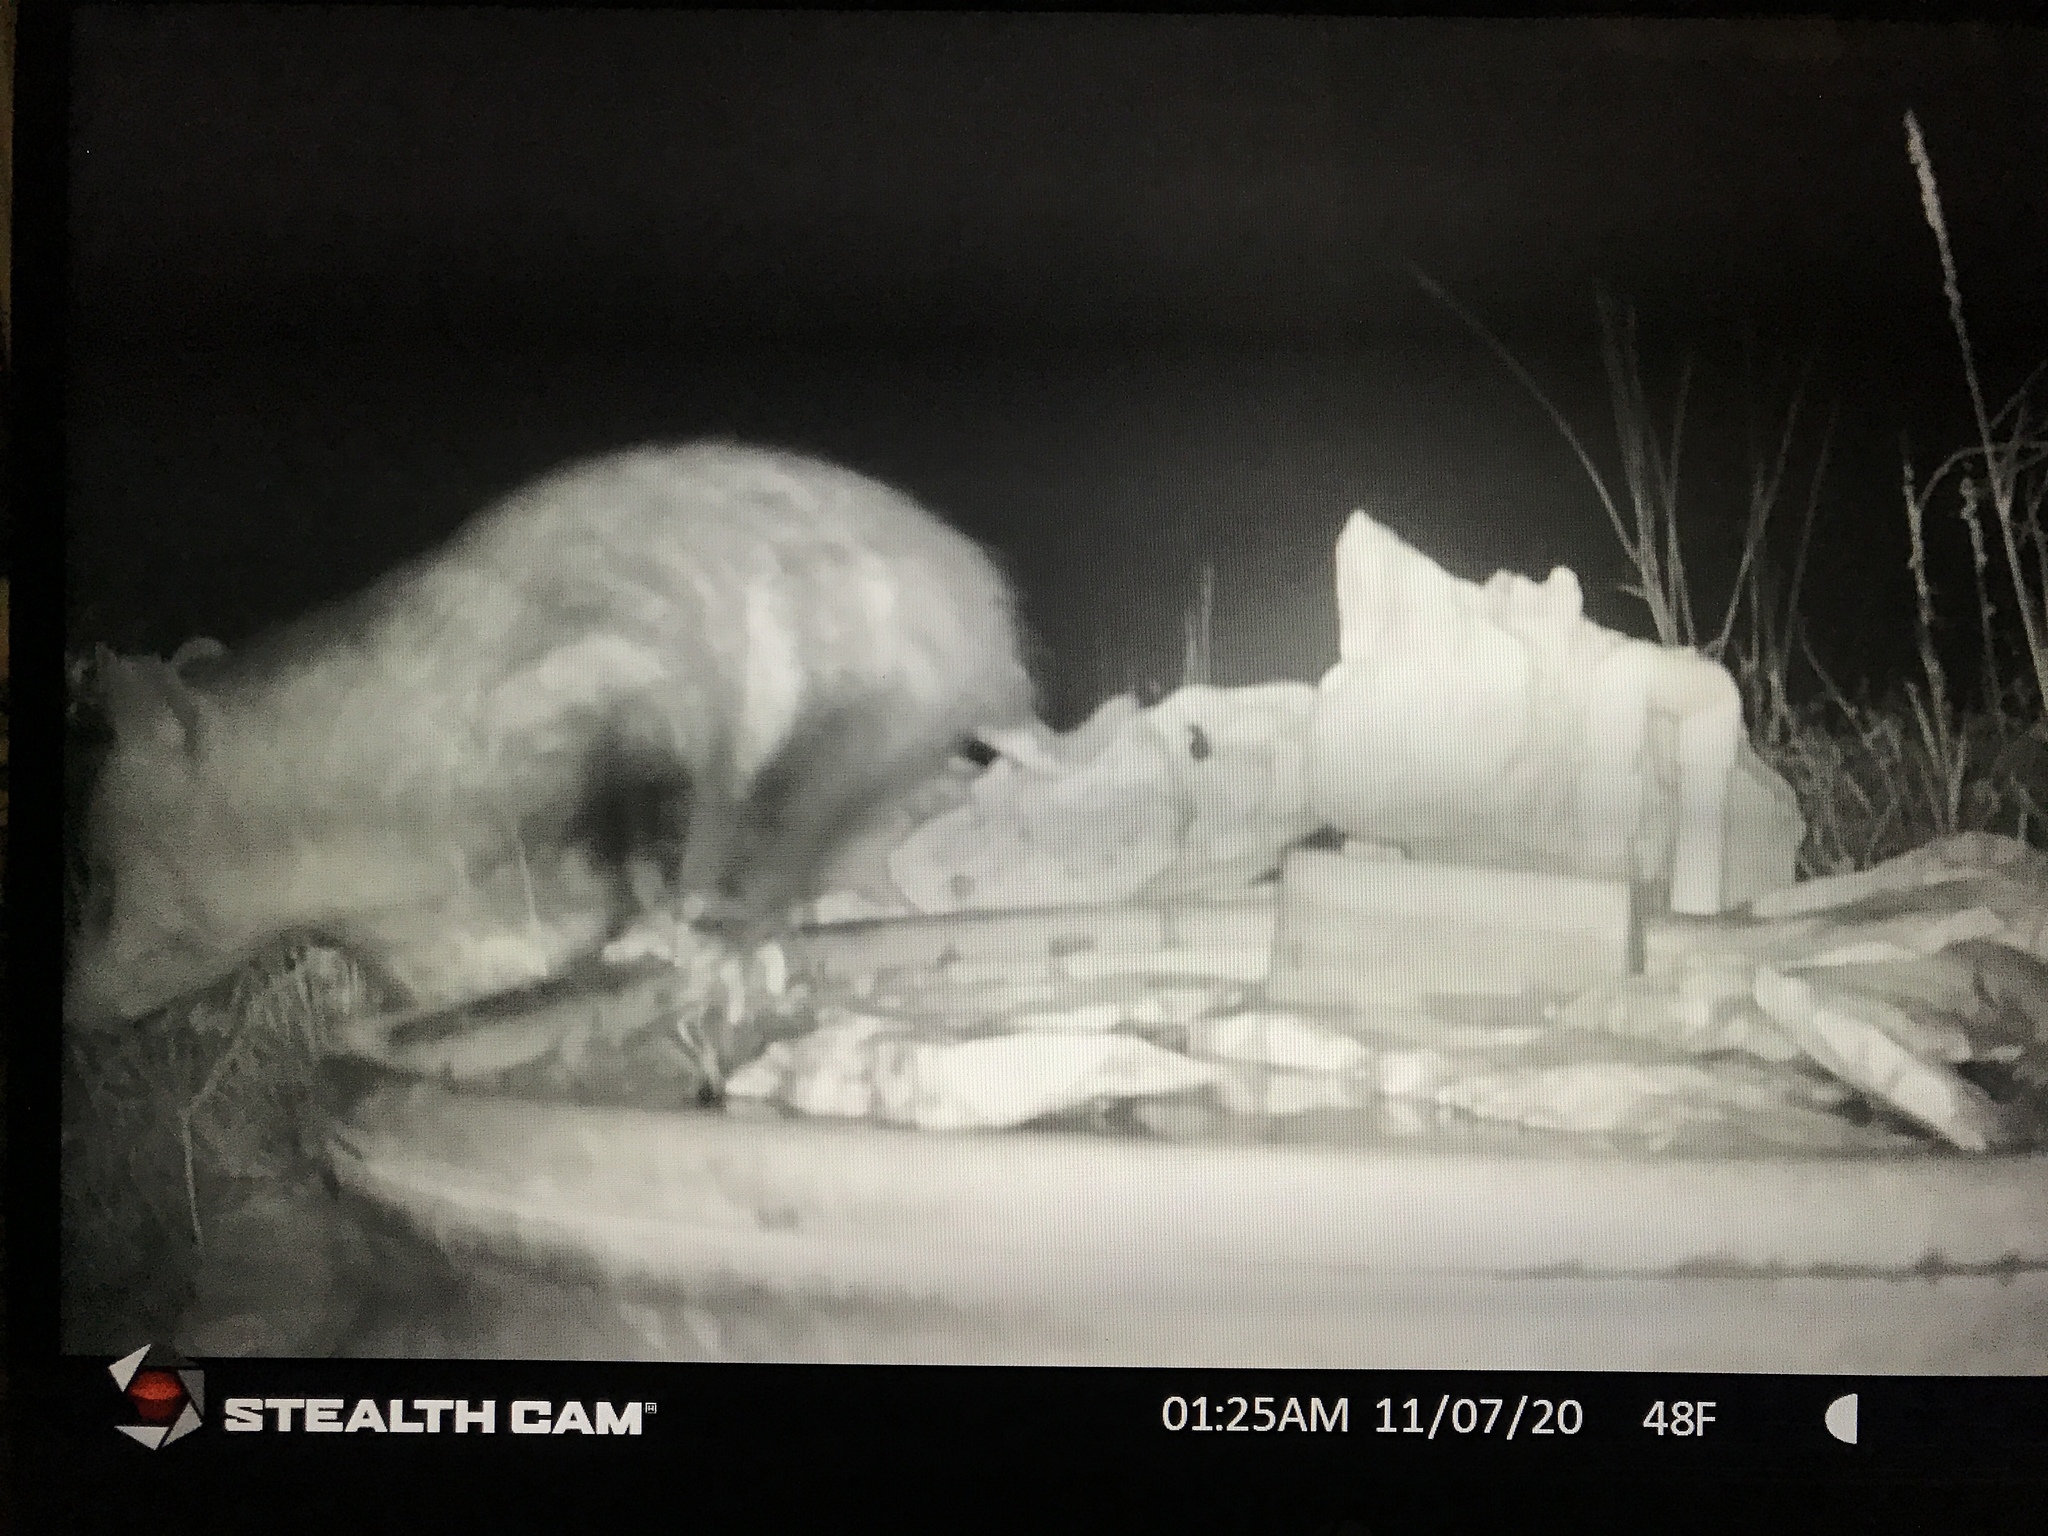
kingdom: Animalia
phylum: Chordata
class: Mammalia
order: Didelphimorphia
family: Didelphidae
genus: Didelphis
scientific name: Didelphis virginiana
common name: Virginia opossum
